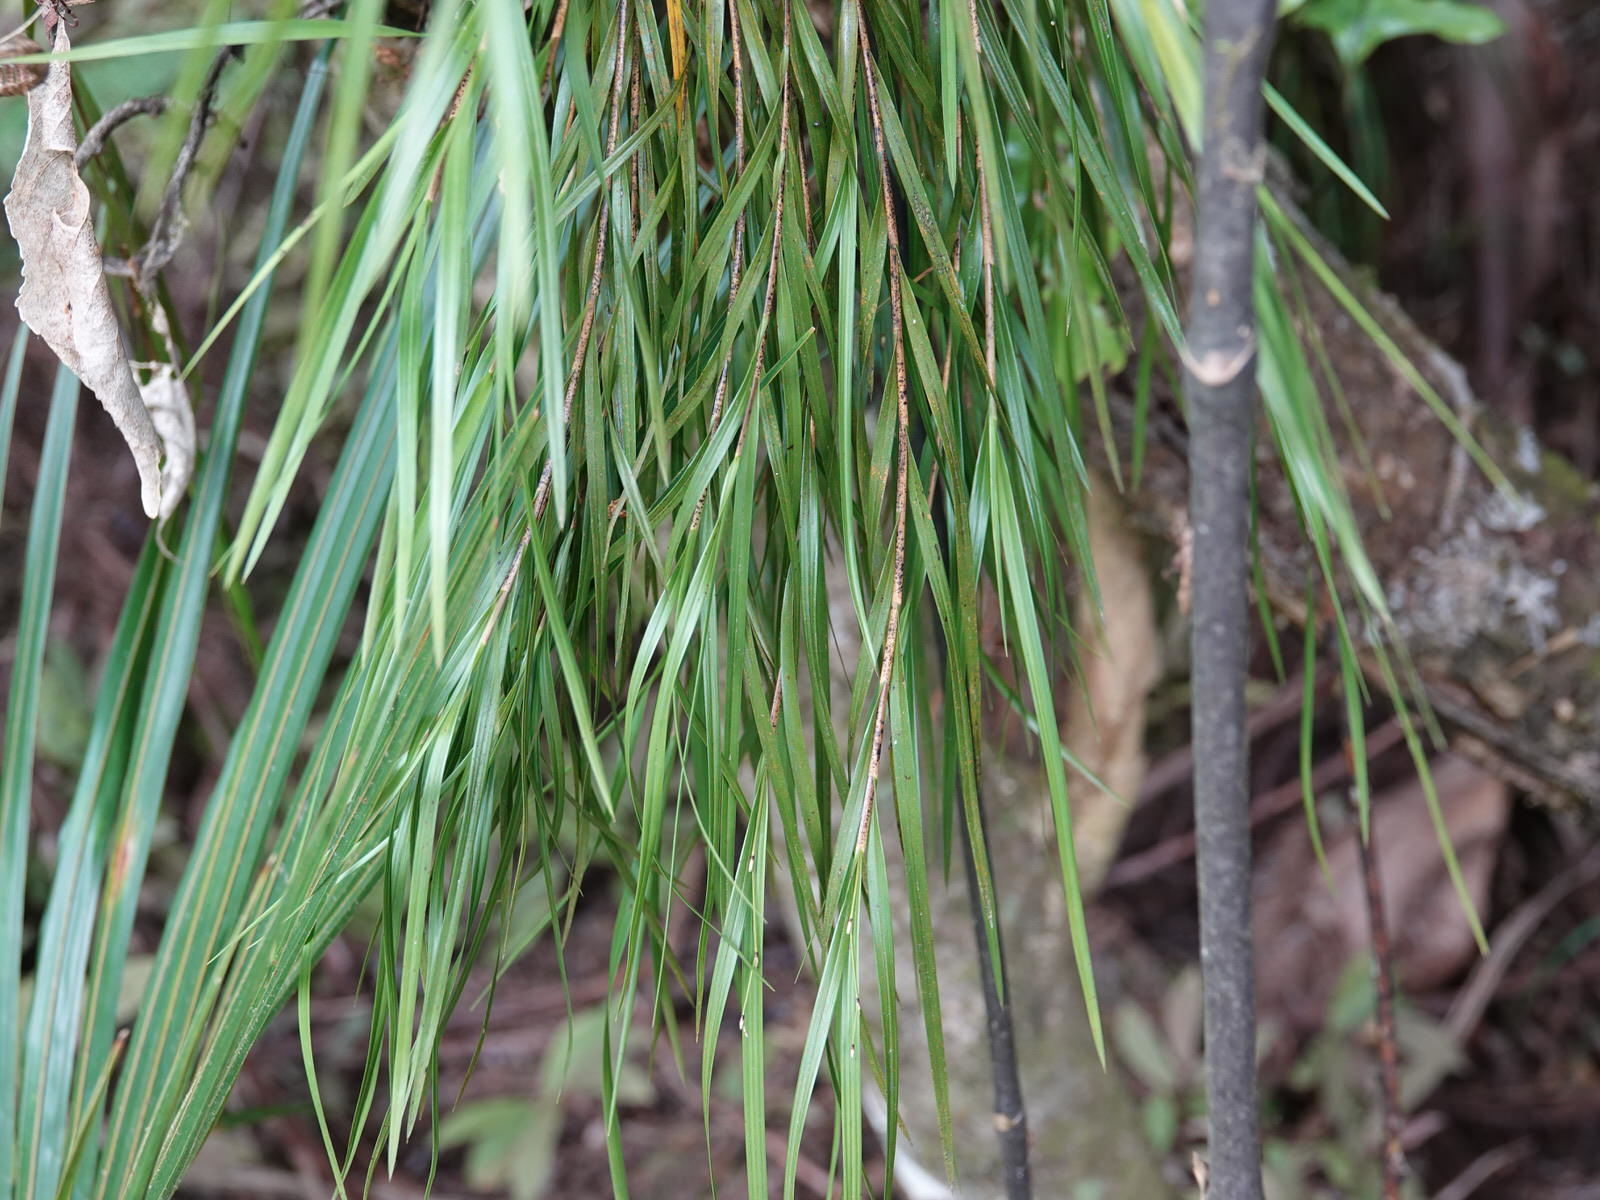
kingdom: Plantae
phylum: Tracheophyta
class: Liliopsida
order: Asparagales
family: Orchidaceae
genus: Earina
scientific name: Earina mucronata
